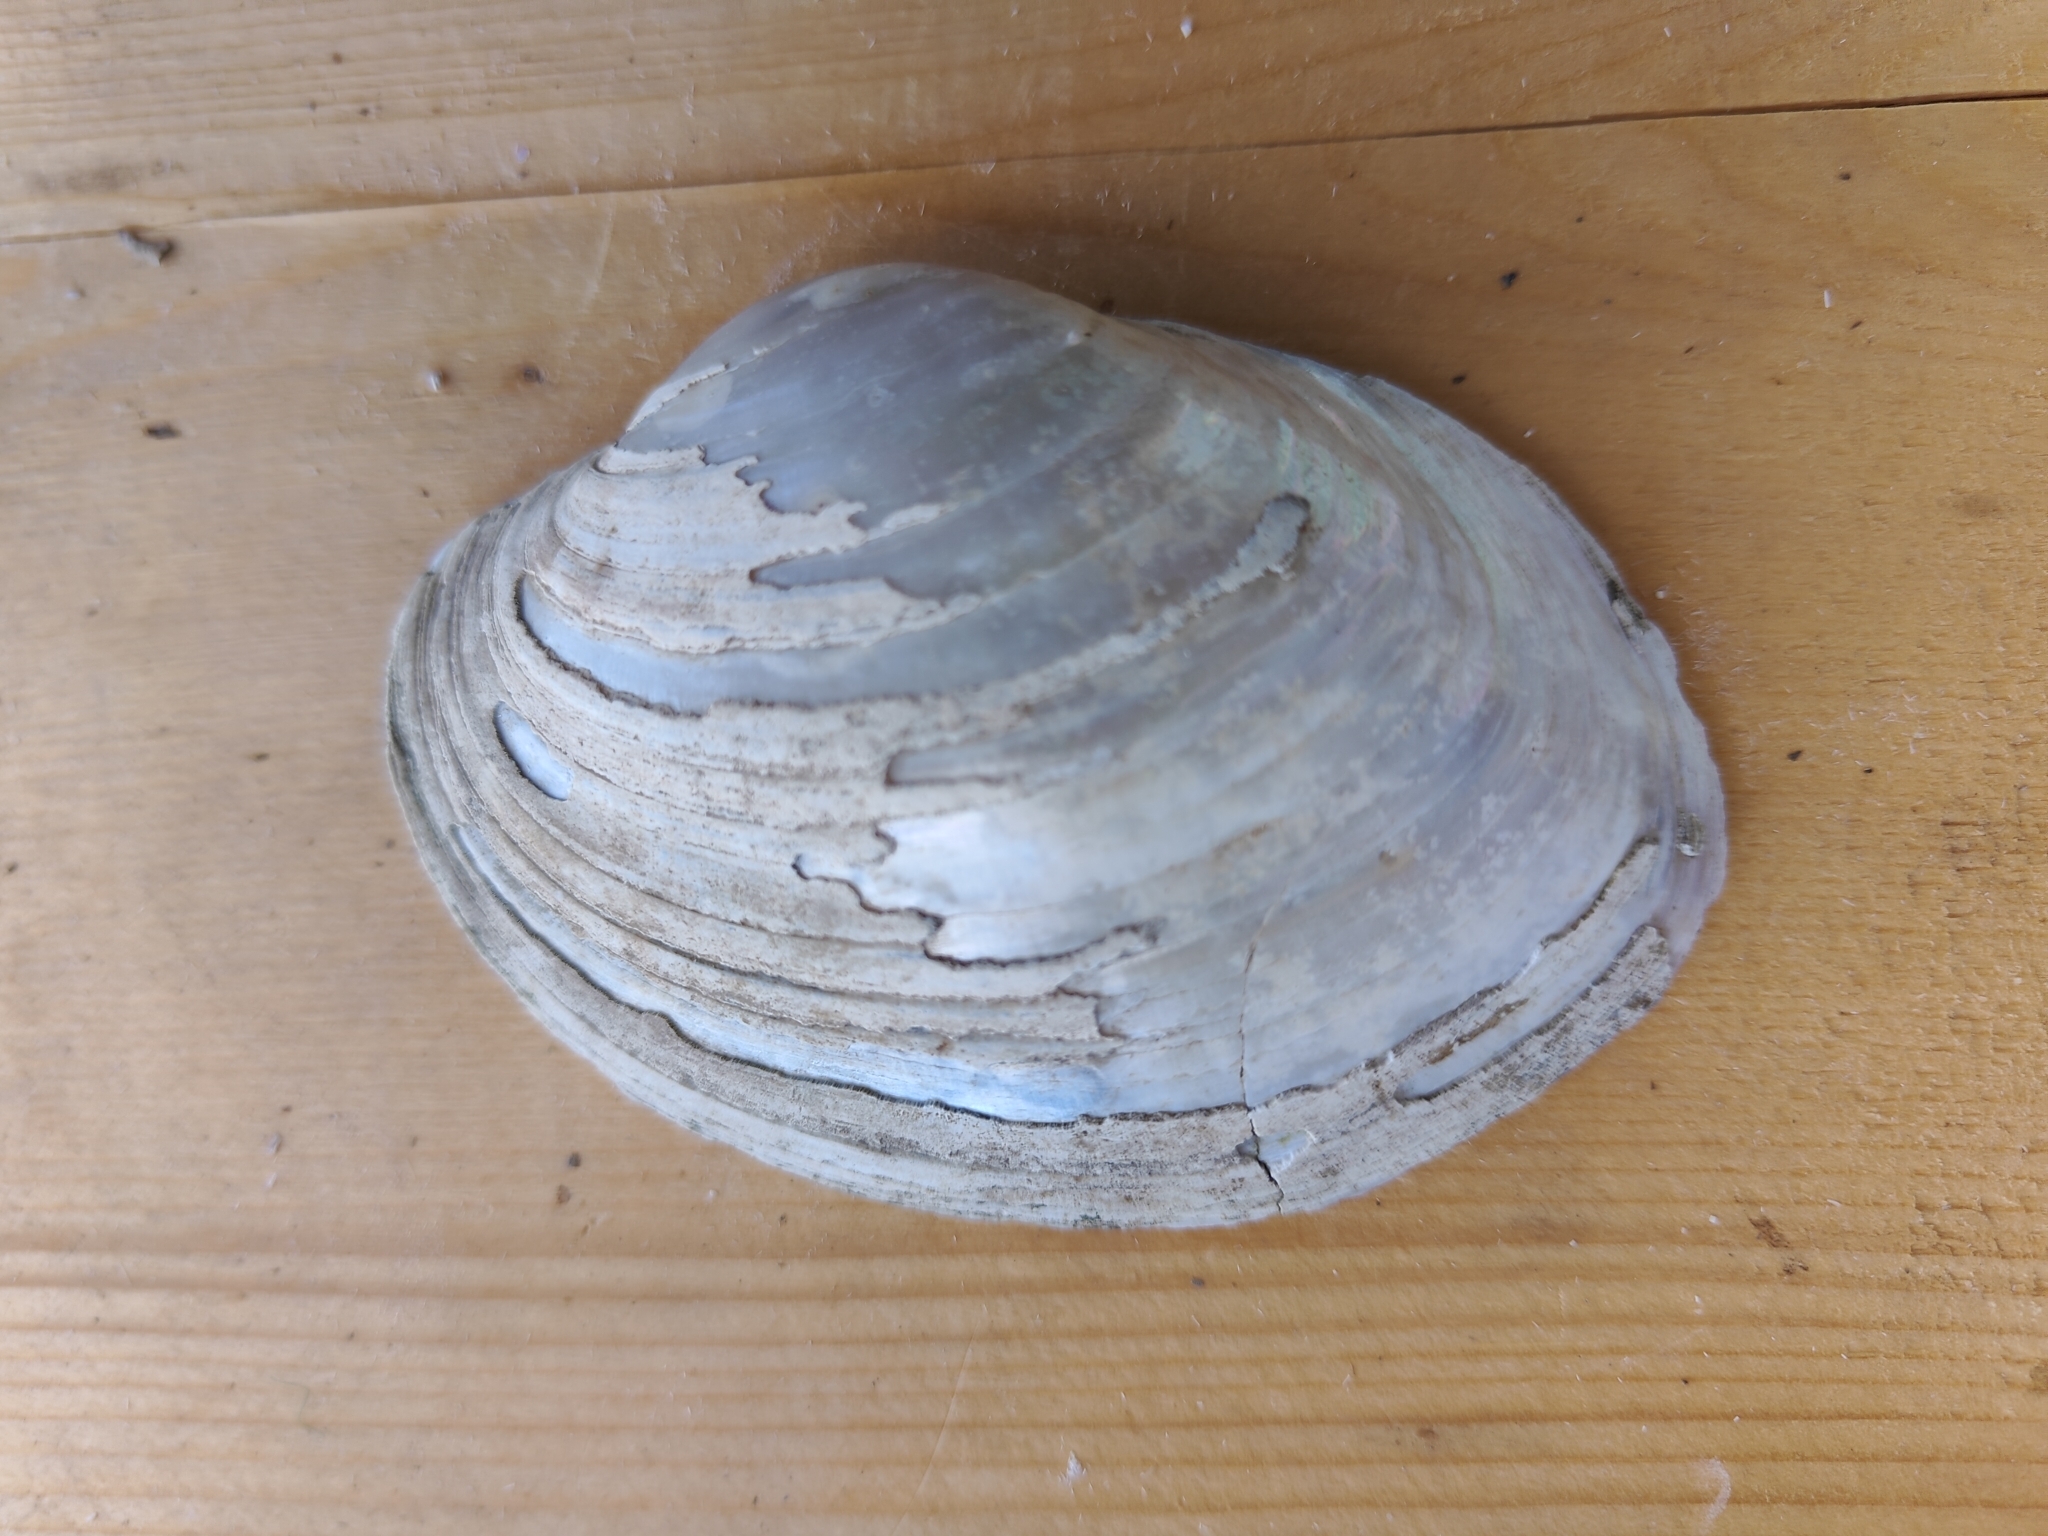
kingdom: Animalia
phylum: Mollusca
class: Bivalvia
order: Unionida
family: Unionidae
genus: Lampsilis
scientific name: Lampsilis cardium
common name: Plain pocketbook
